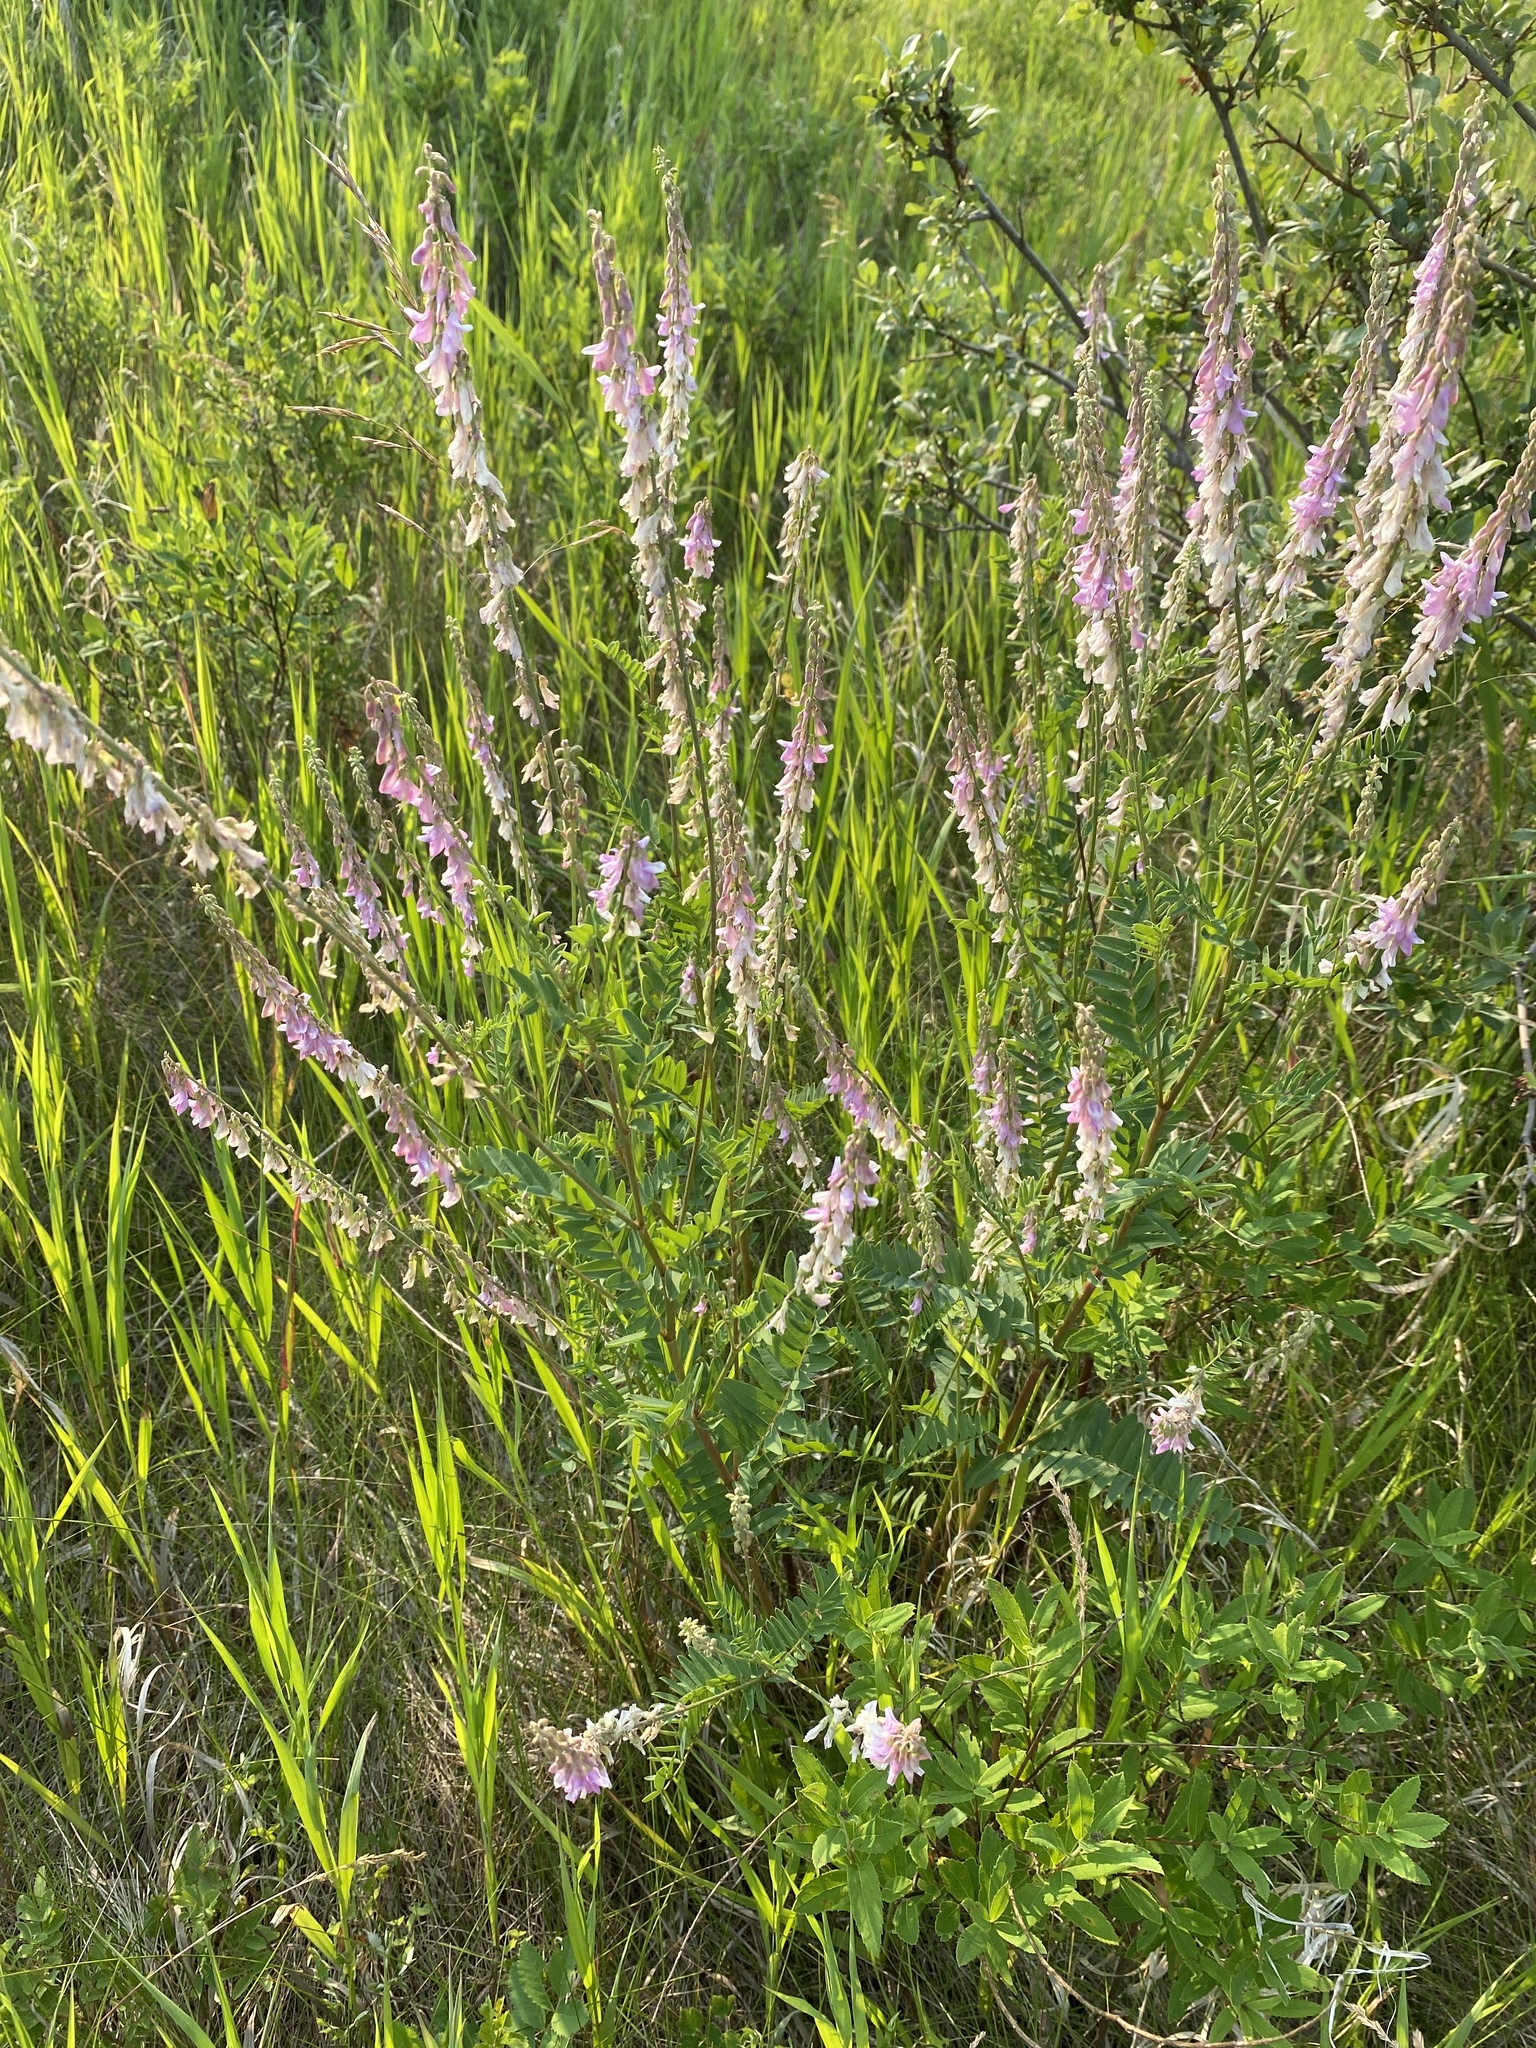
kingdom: Plantae
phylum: Tracheophyta
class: Magnoliopsida
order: Fabales
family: Fabaceae
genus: Hedysarum
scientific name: Hedysarum alpinum
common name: Alpine sweet-vetch
